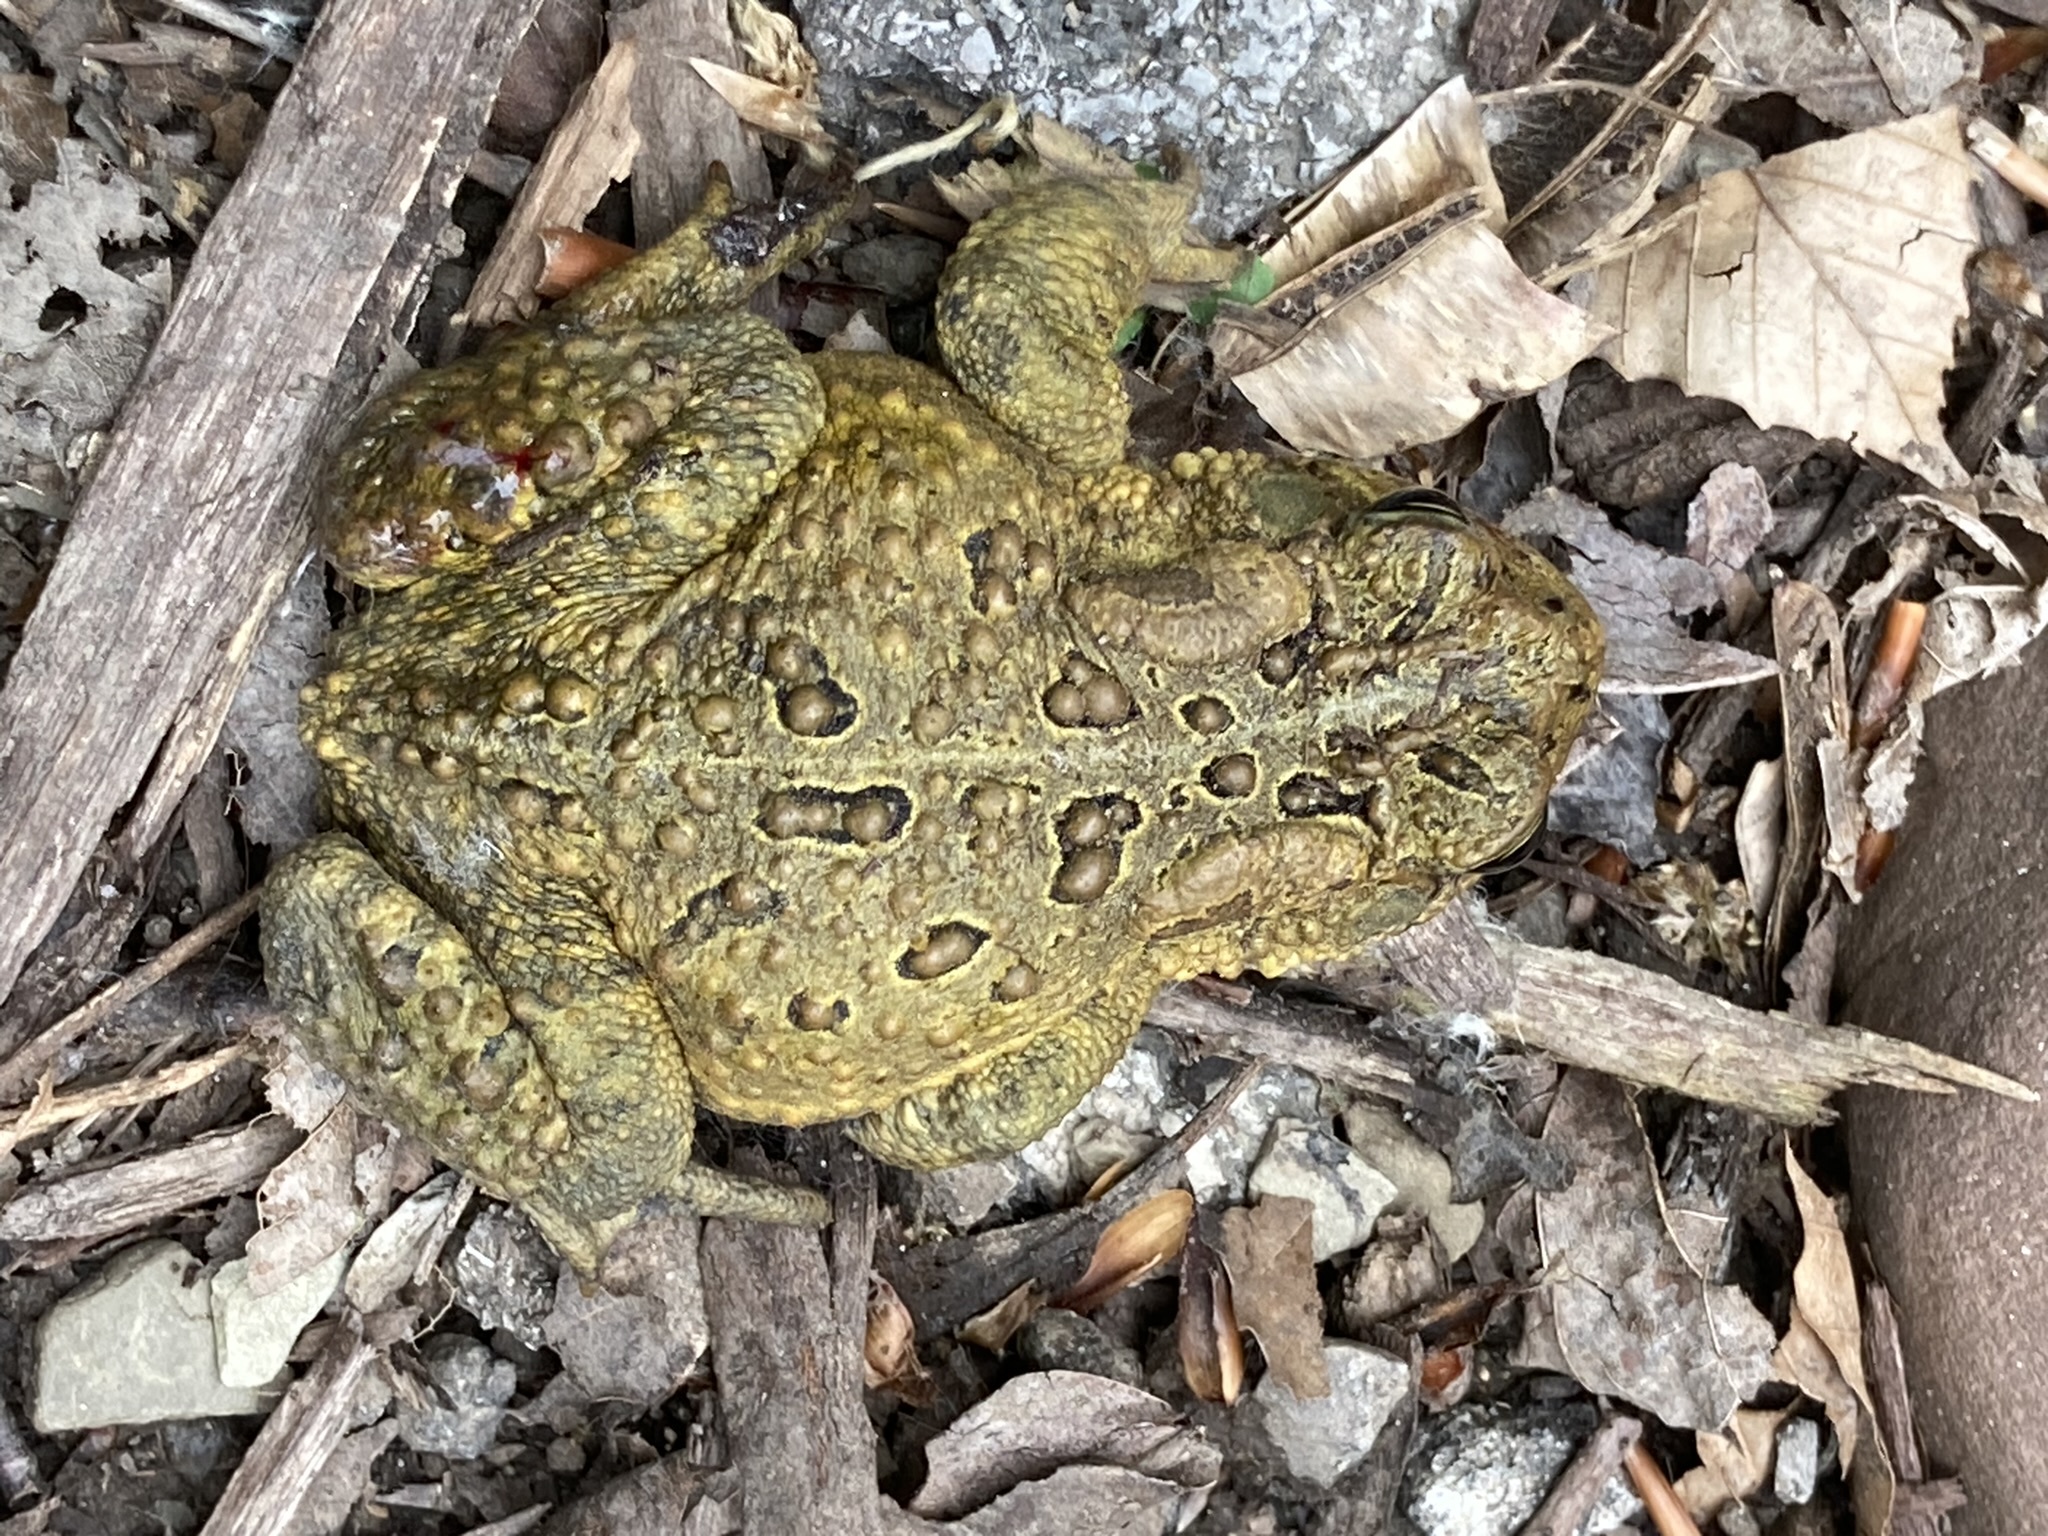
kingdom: Animalia
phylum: Chordata
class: Amphibia
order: Anura
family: Bufonidae
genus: Anaxyrus
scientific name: Anaxyrus americanus
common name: American toad
